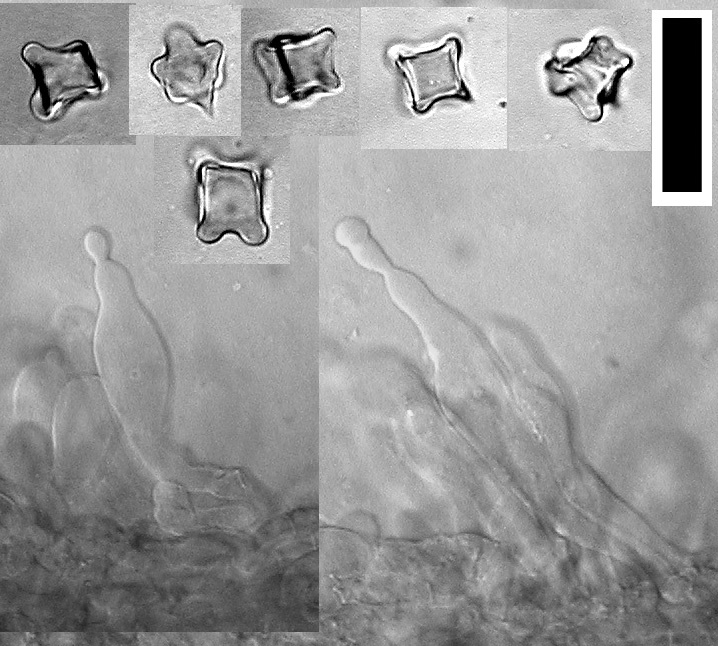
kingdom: Fungi
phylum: Basidiomycota
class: Agaricomycetes
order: Agaricales
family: Entolomataceae
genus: Entoloma
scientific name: Entoloma canoconicum
